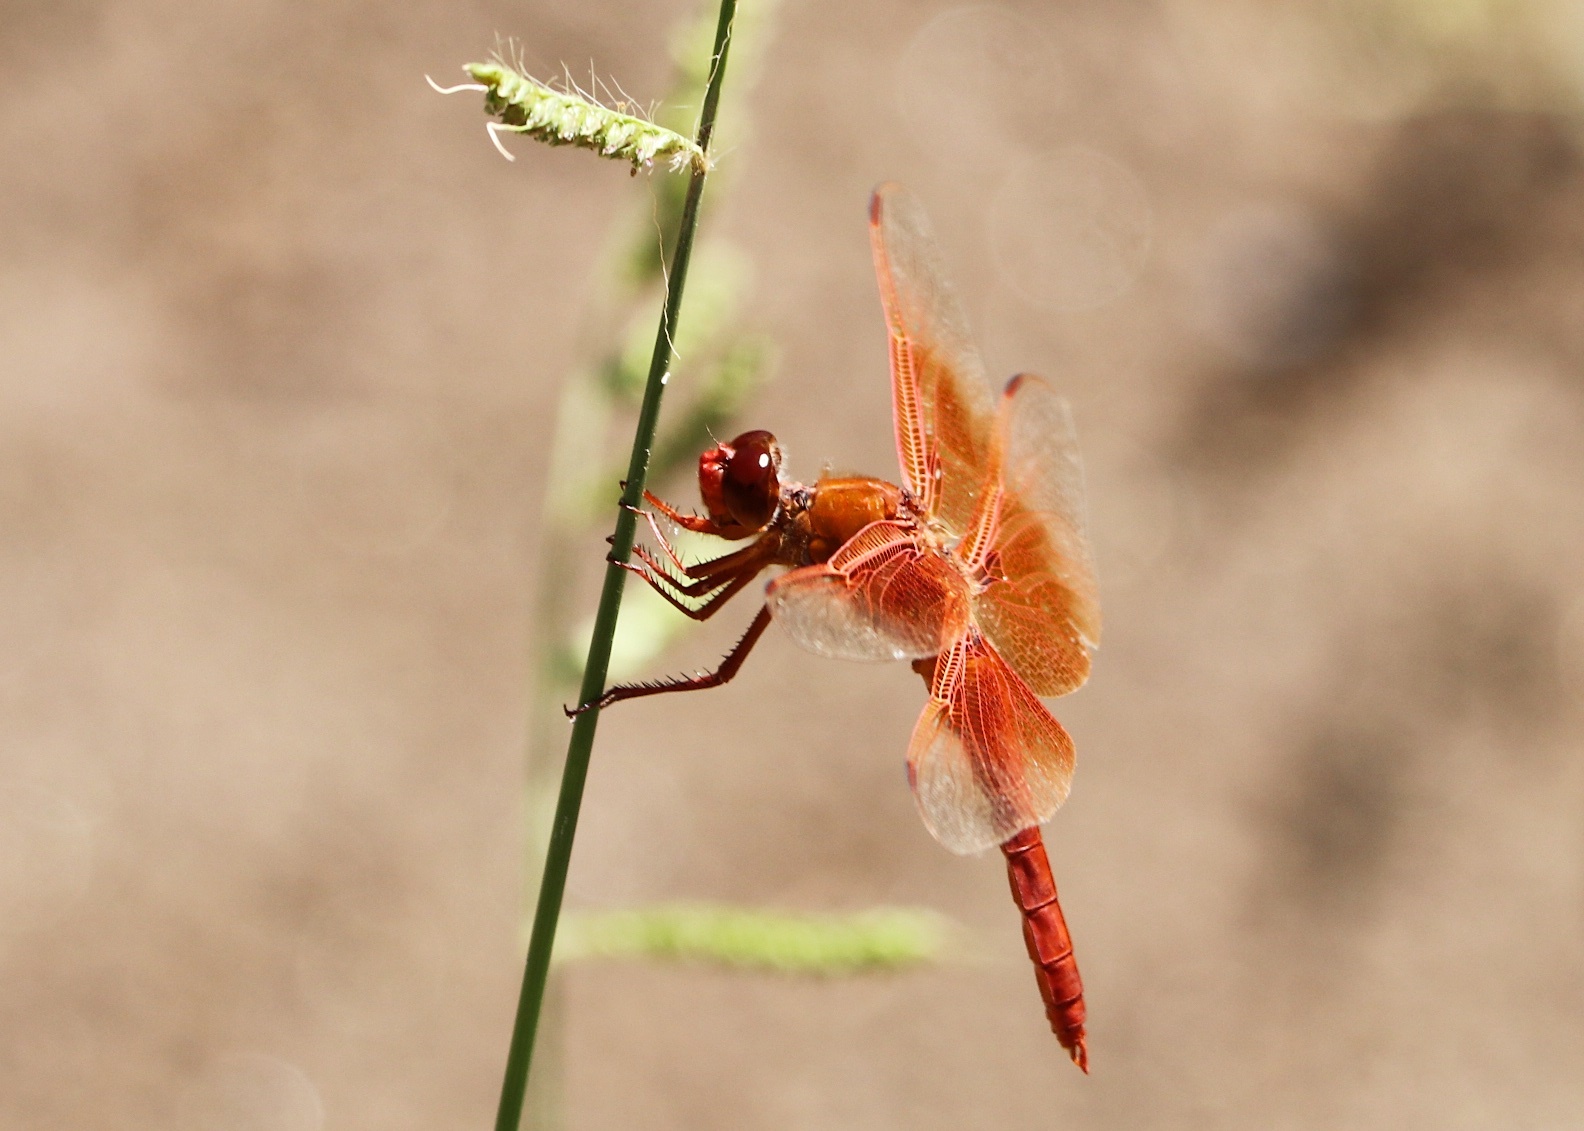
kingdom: Animalia
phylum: Arthropoda
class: Insecta
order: Odonata
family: Libellulidae
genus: Libellula
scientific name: Libellula saturata
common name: Flame skimmer
